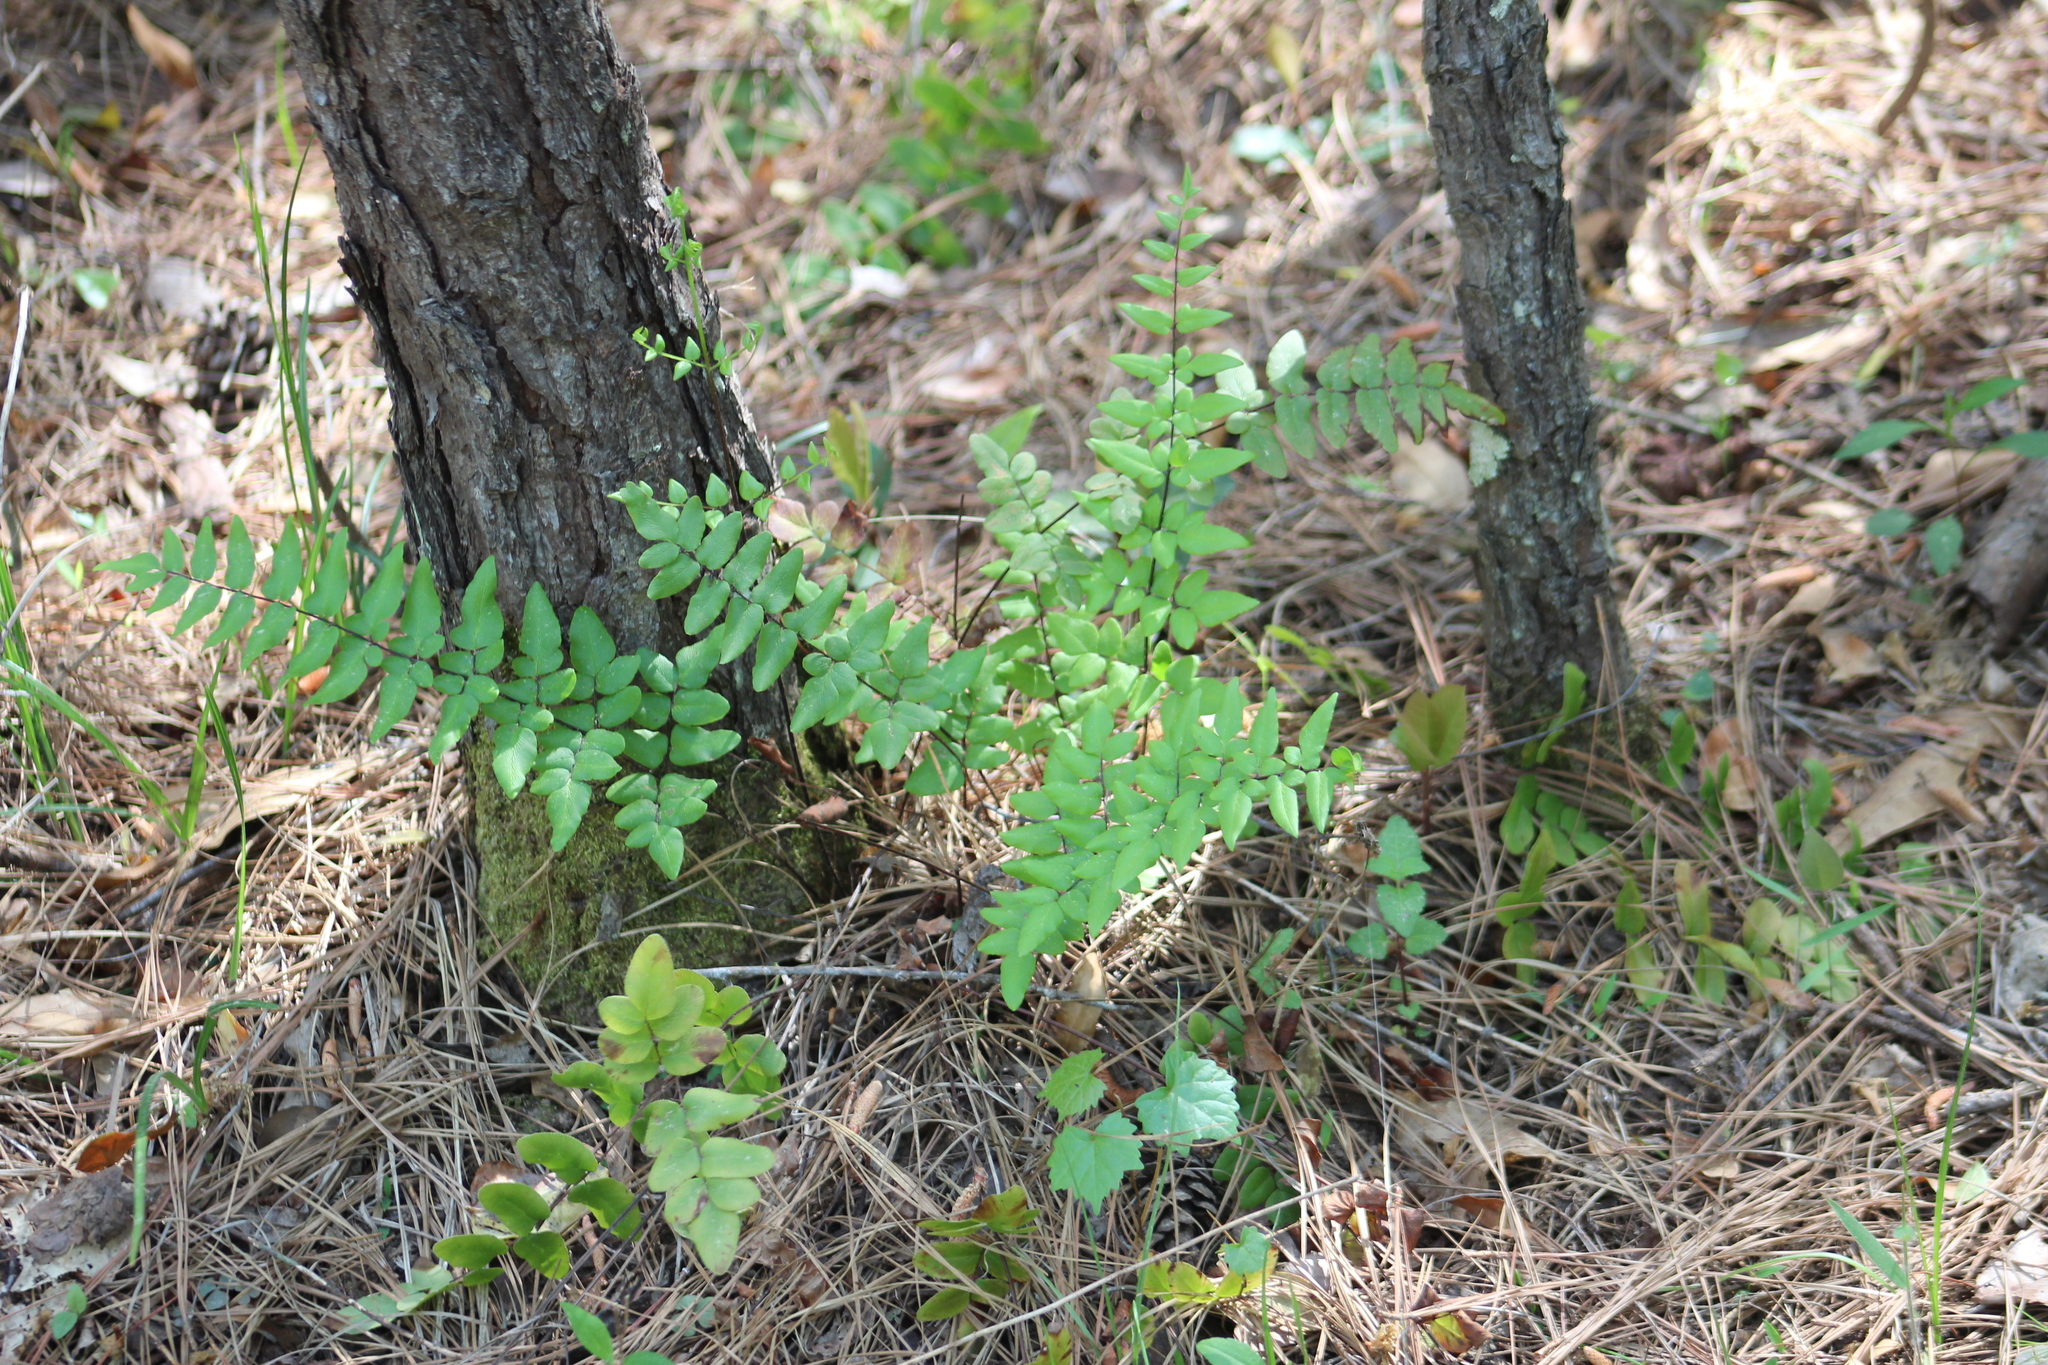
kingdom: Plantae
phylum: Tracheophyta
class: Polypodiopsida
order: Polypodiales
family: Pteridaceae
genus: Cheilanthes
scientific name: Cheilanthes viridis
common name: Green cliffbrake
